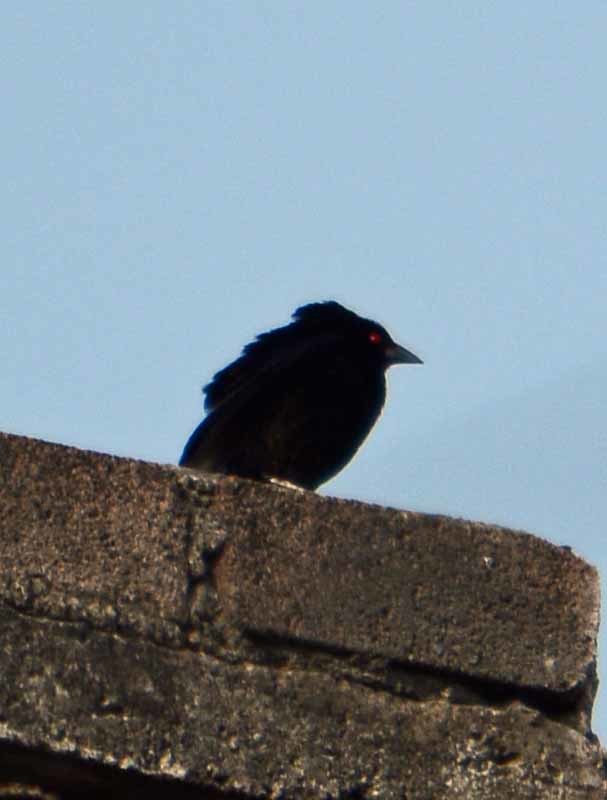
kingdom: Animalia
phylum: Chordata
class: Aves
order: Passeriformes
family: Icteridae
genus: Molothrus
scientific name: Molothrus aeneus
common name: Bronzed cowbird
